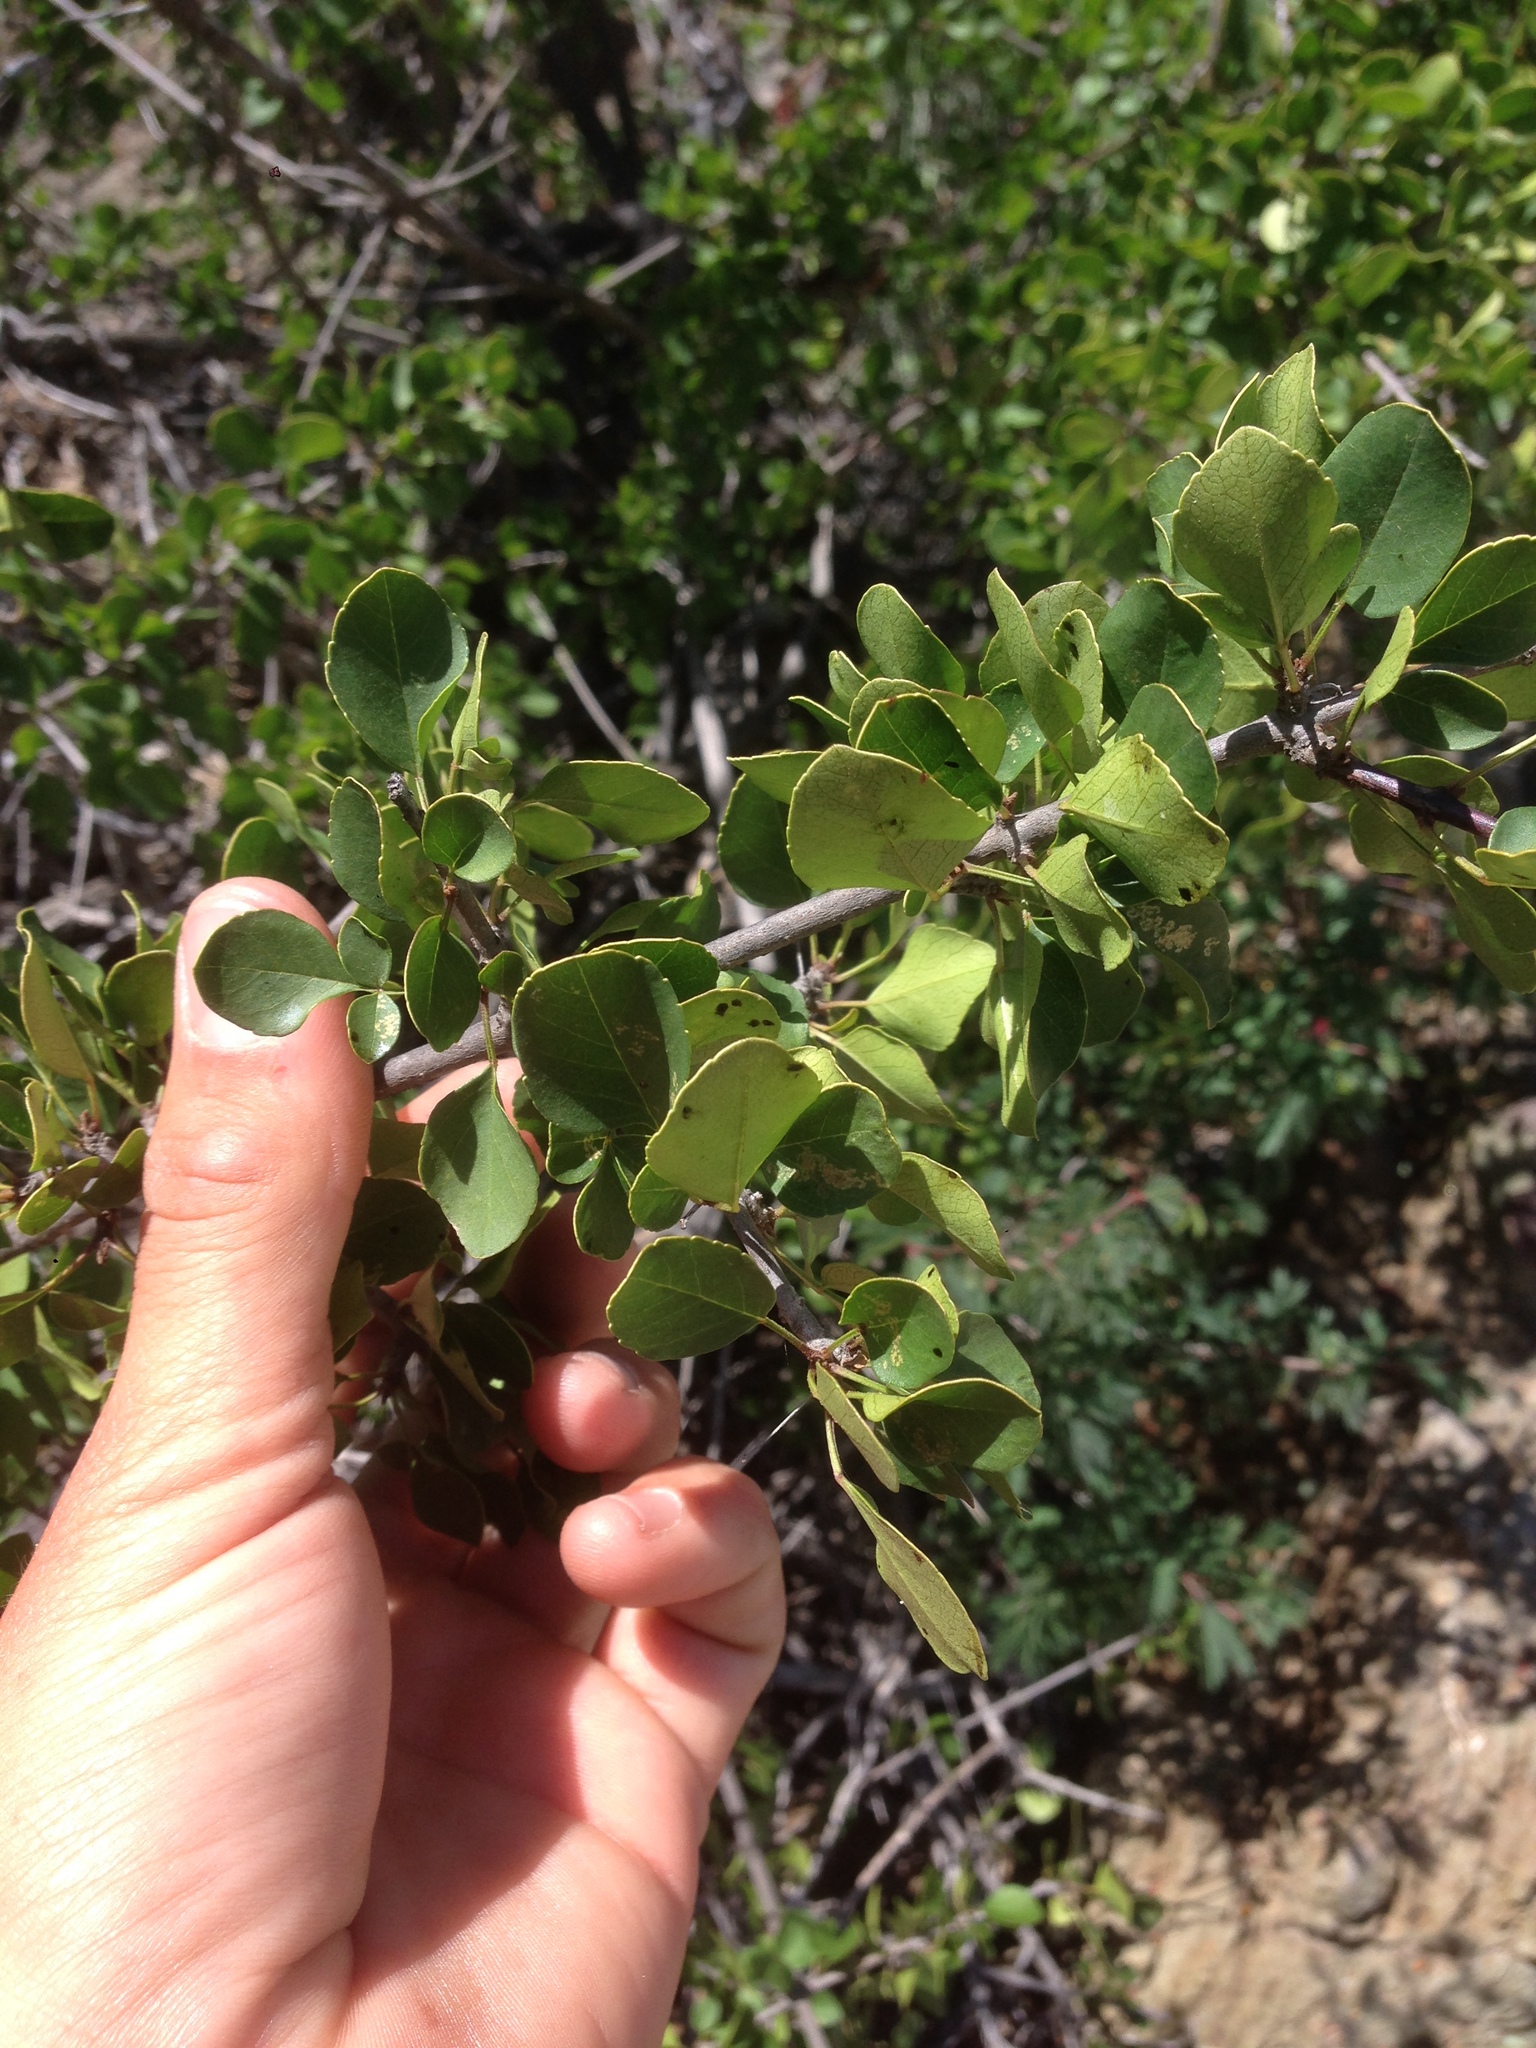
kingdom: Plantae
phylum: Tracheophyta
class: Magnoliopsida
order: Lamiales
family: Oleaceae
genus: Fraxinus
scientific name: Fraxinus dipetala
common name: California ash
